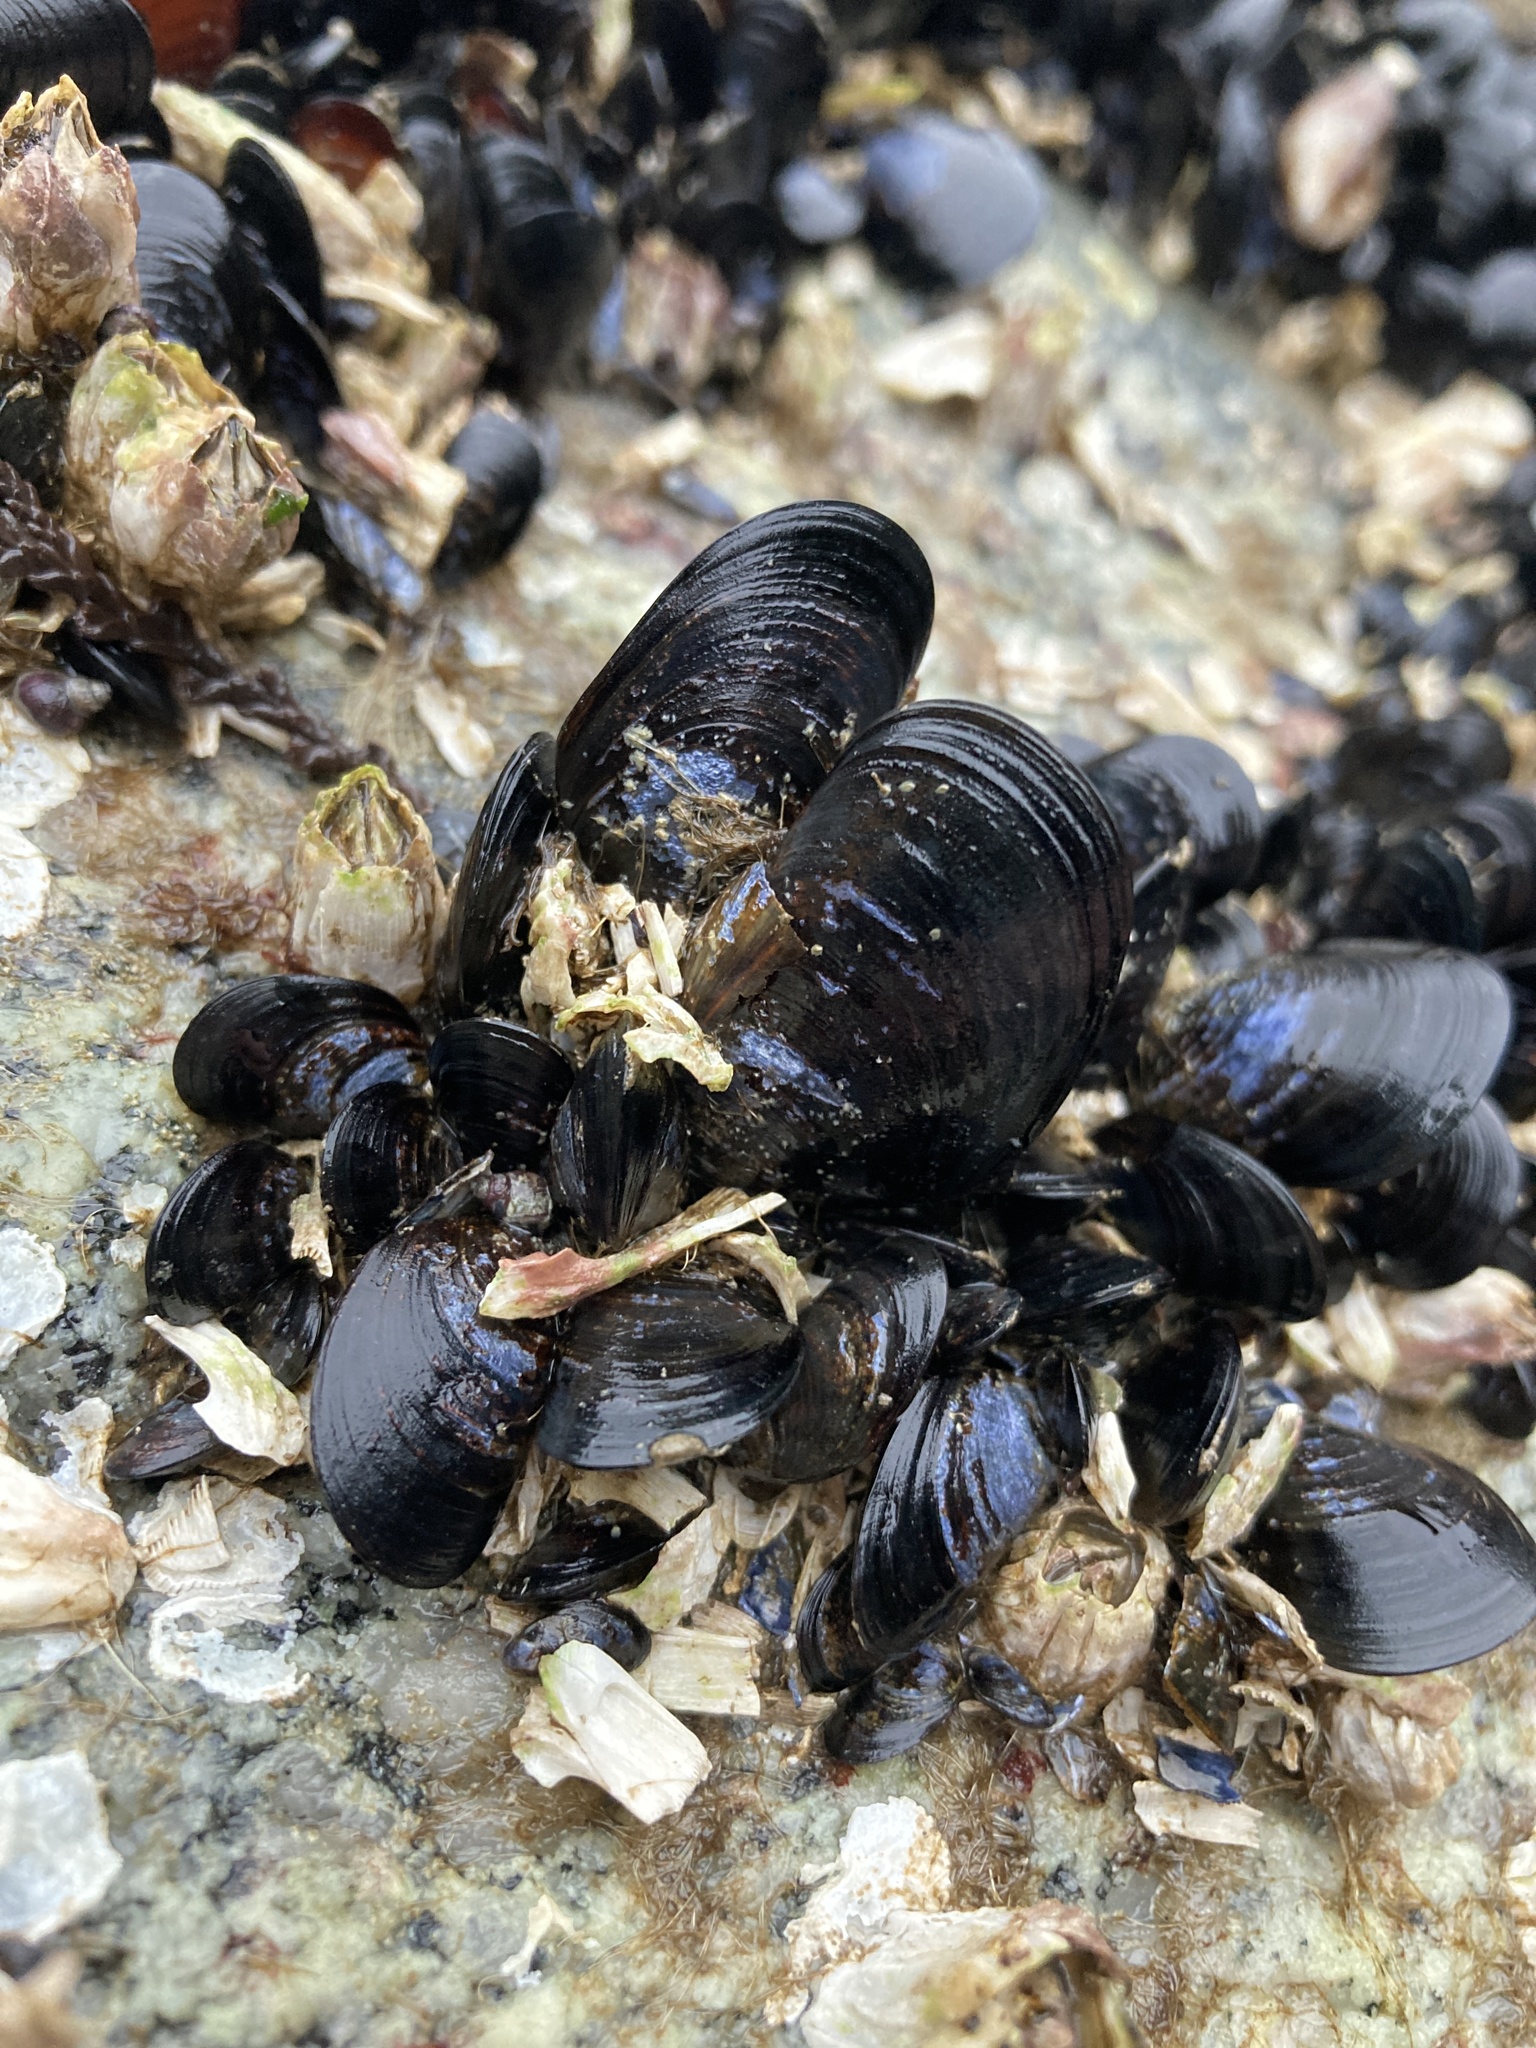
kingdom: Animalia
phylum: Mollusca
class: Bivalvia
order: Mytilida
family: Mytilidae
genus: Mytilus
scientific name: Mytilus
